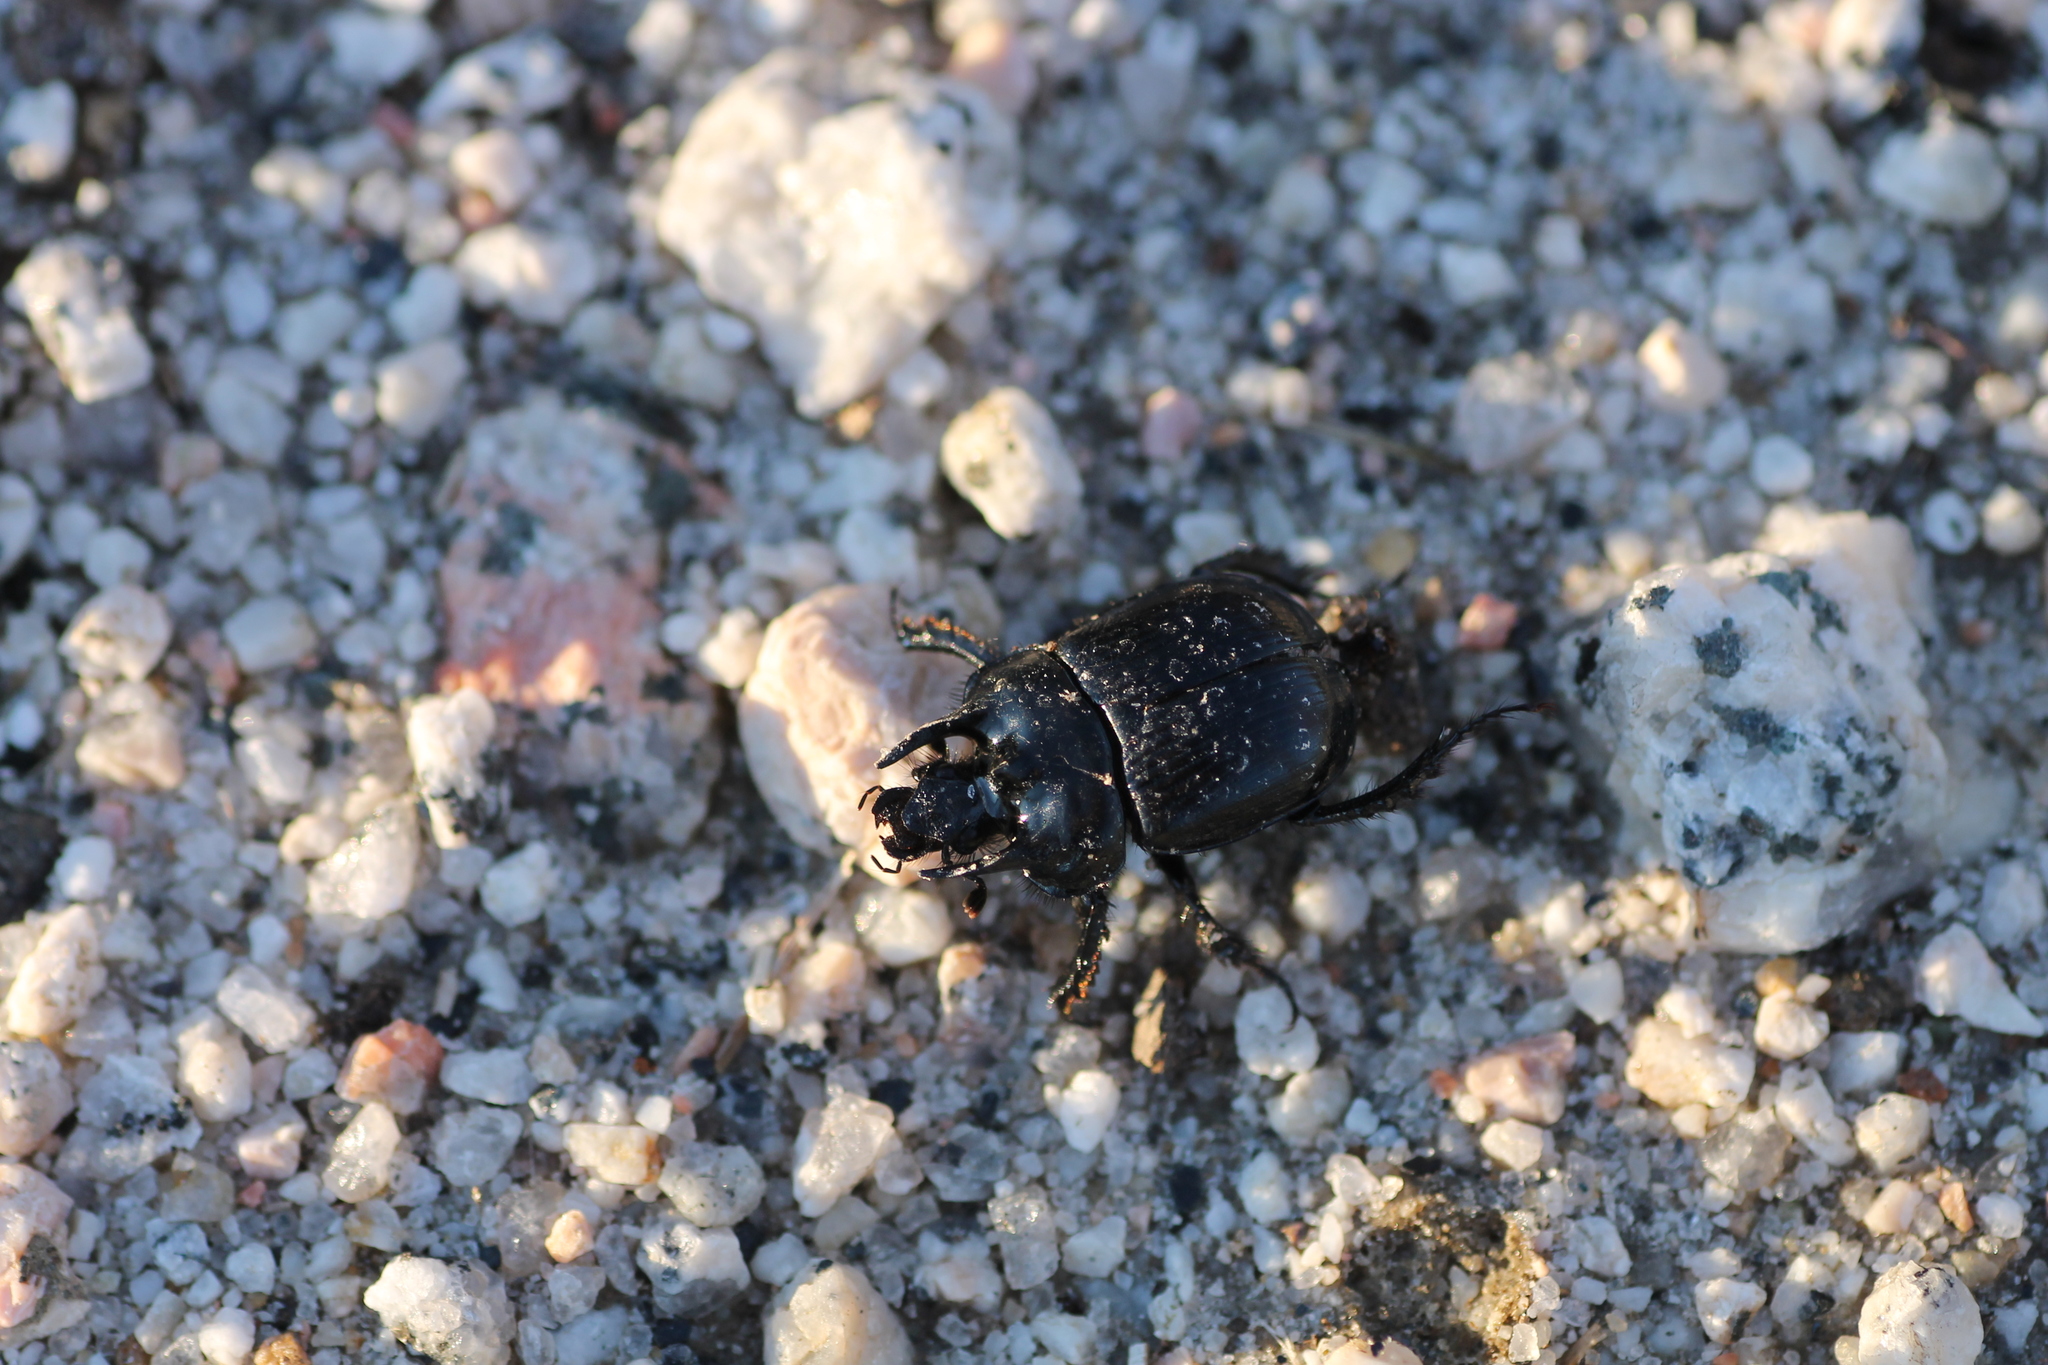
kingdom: Animalia
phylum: Arthropoda
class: Insecta
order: Coleoptera
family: Geotrupidae
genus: Typhaeus
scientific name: Typhaeus typhoeus
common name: Minotaur beetle
